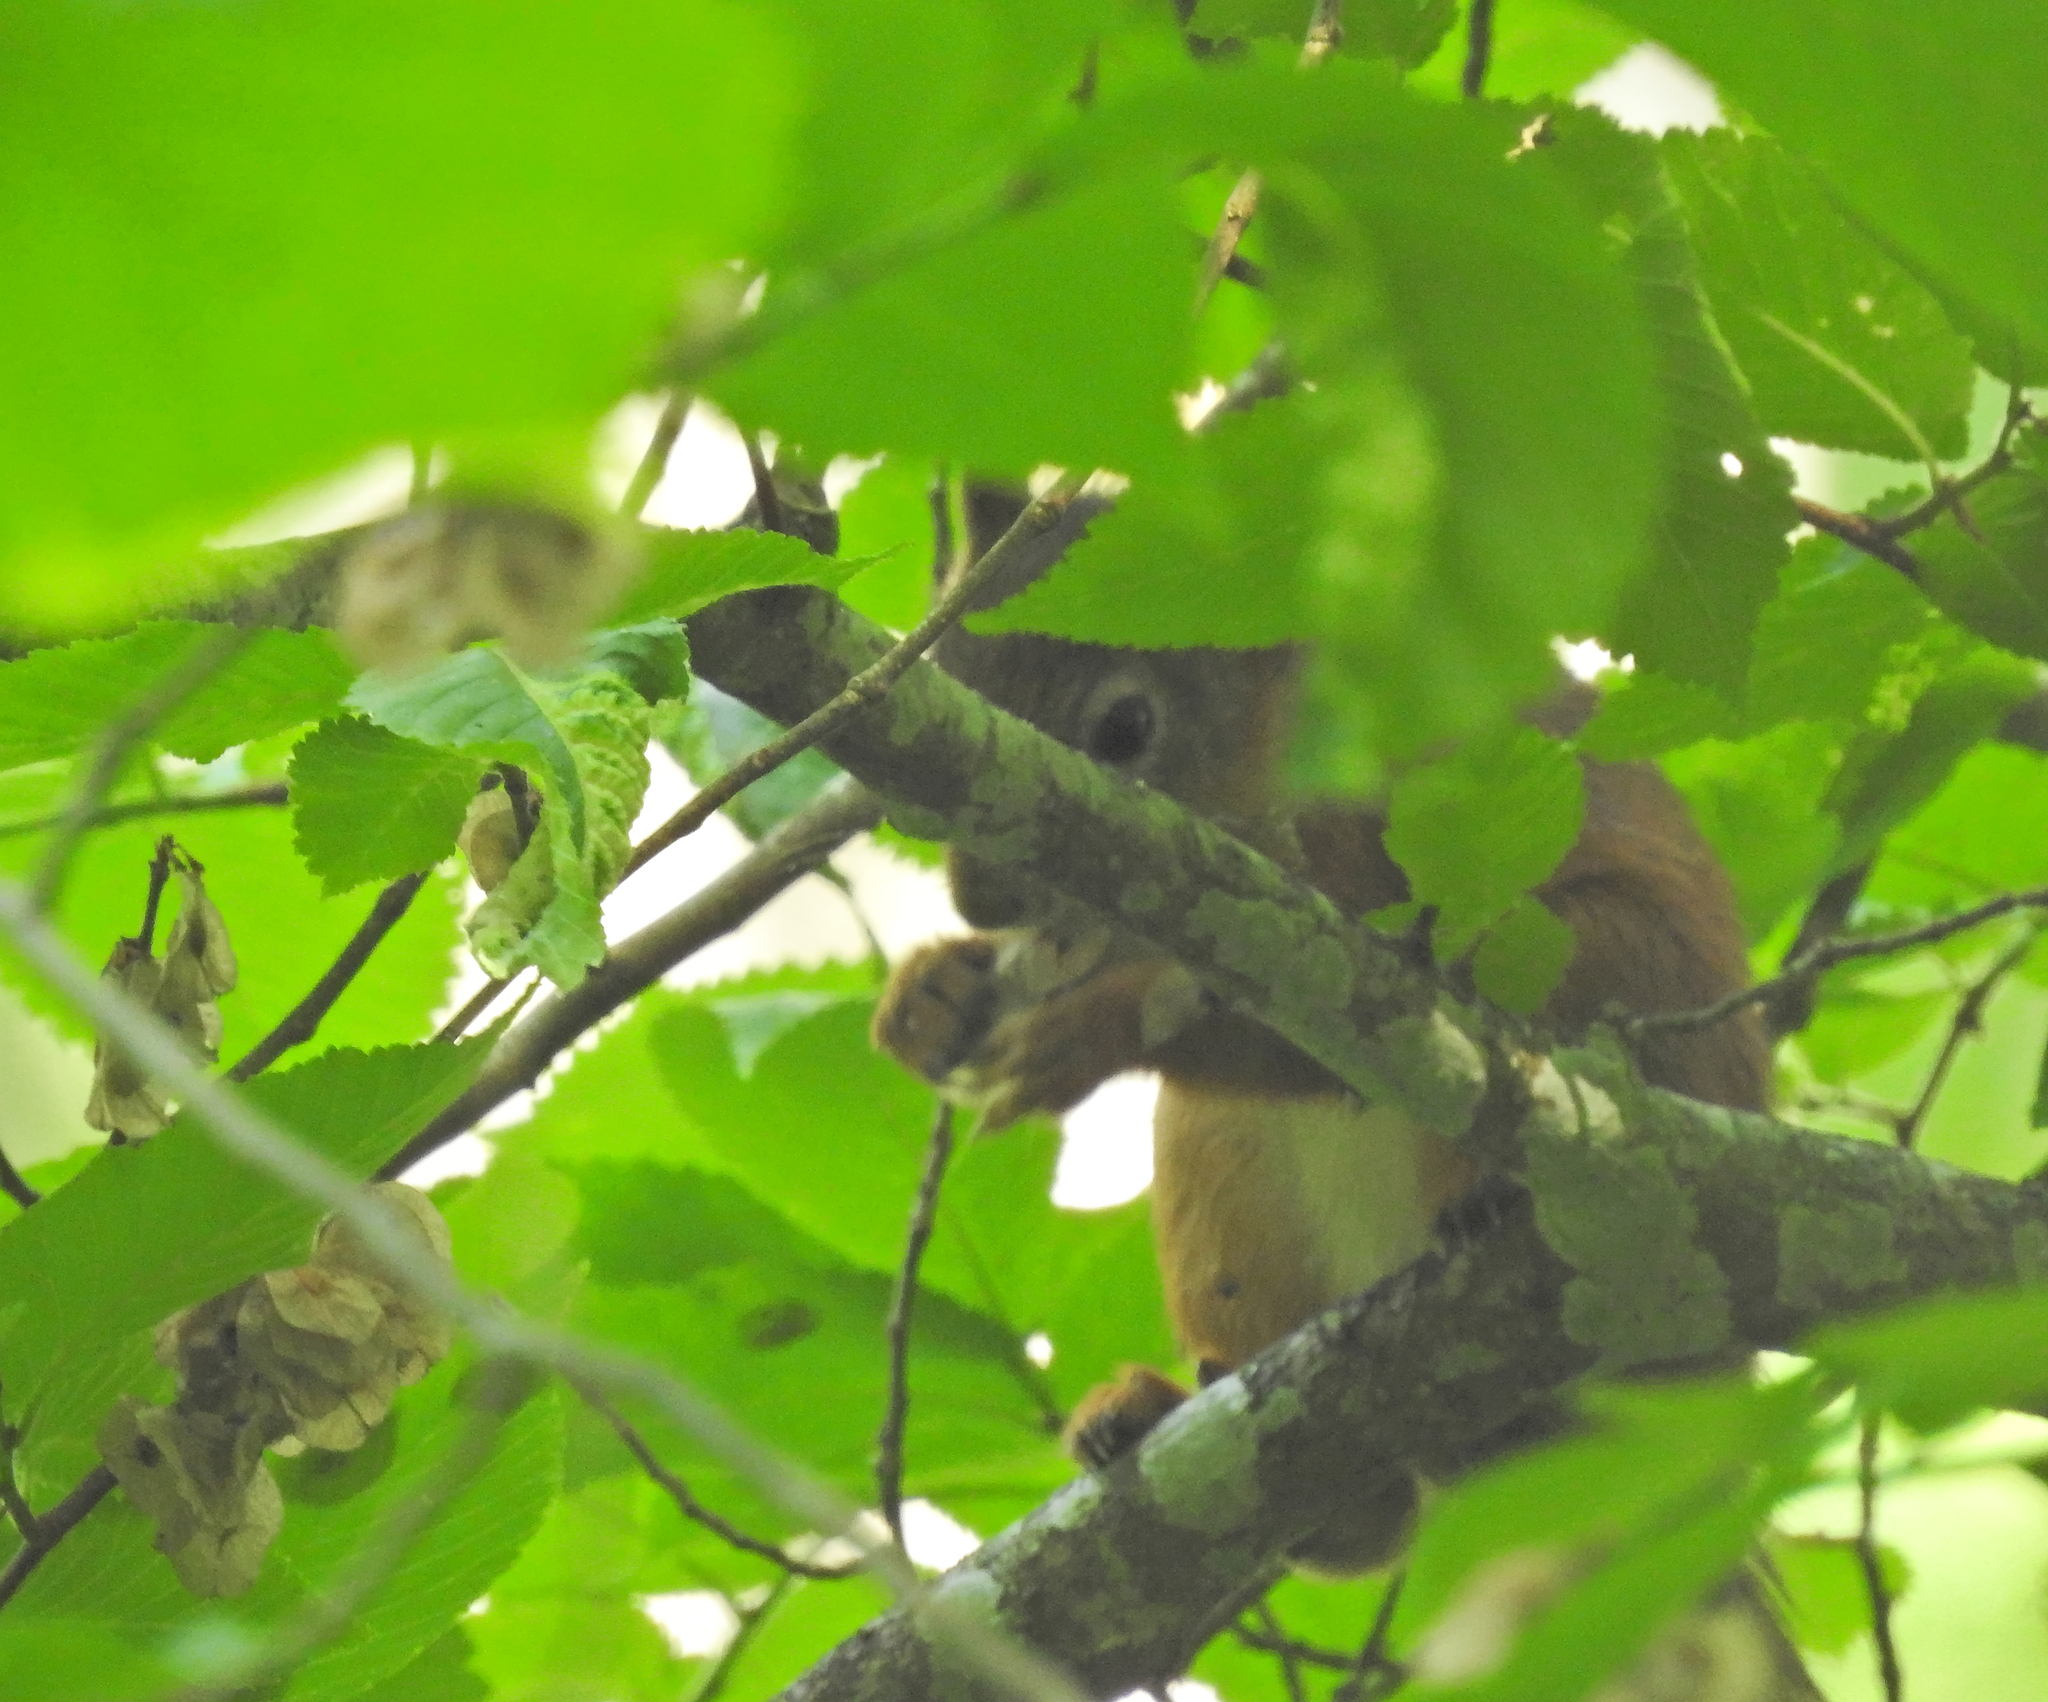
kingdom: Animalia
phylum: Chordata
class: Mammalia
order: Rodentia
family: Sciuridae
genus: Sciurus
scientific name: Sciurus vulgaris
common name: Eurasian red squirrel
